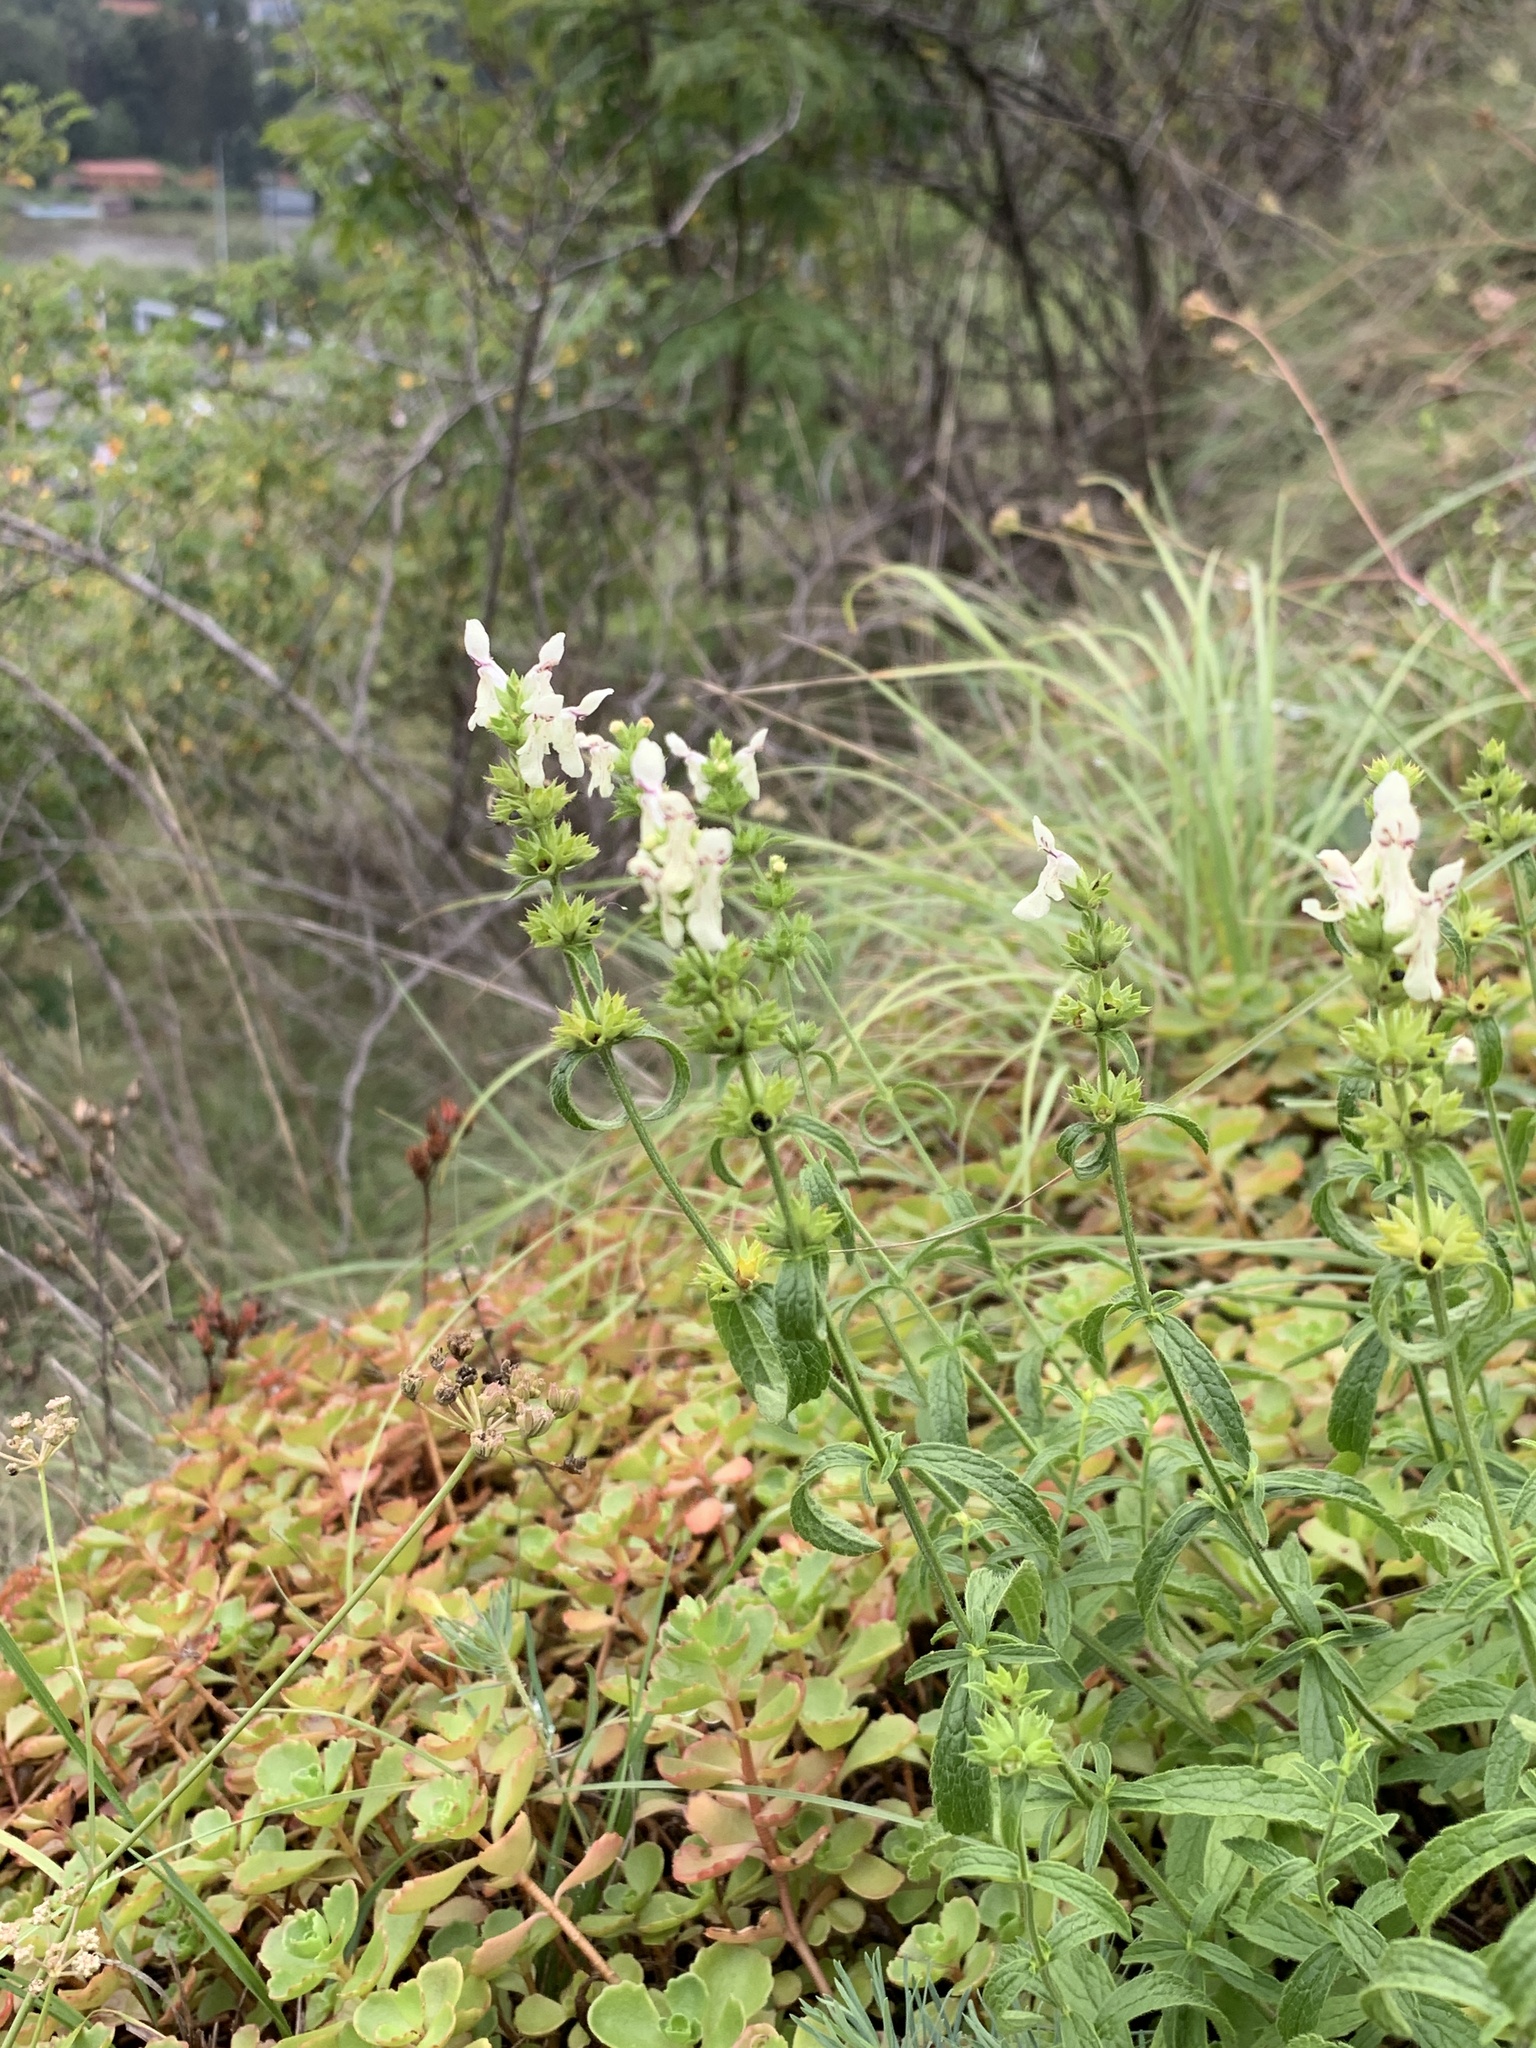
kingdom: Plantae
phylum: Tracheophyta
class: Magnoliopsida
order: Lamiales
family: Lamiaceae
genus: Stachys
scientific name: Stachys recta
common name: Perennial yellow-woundwort
